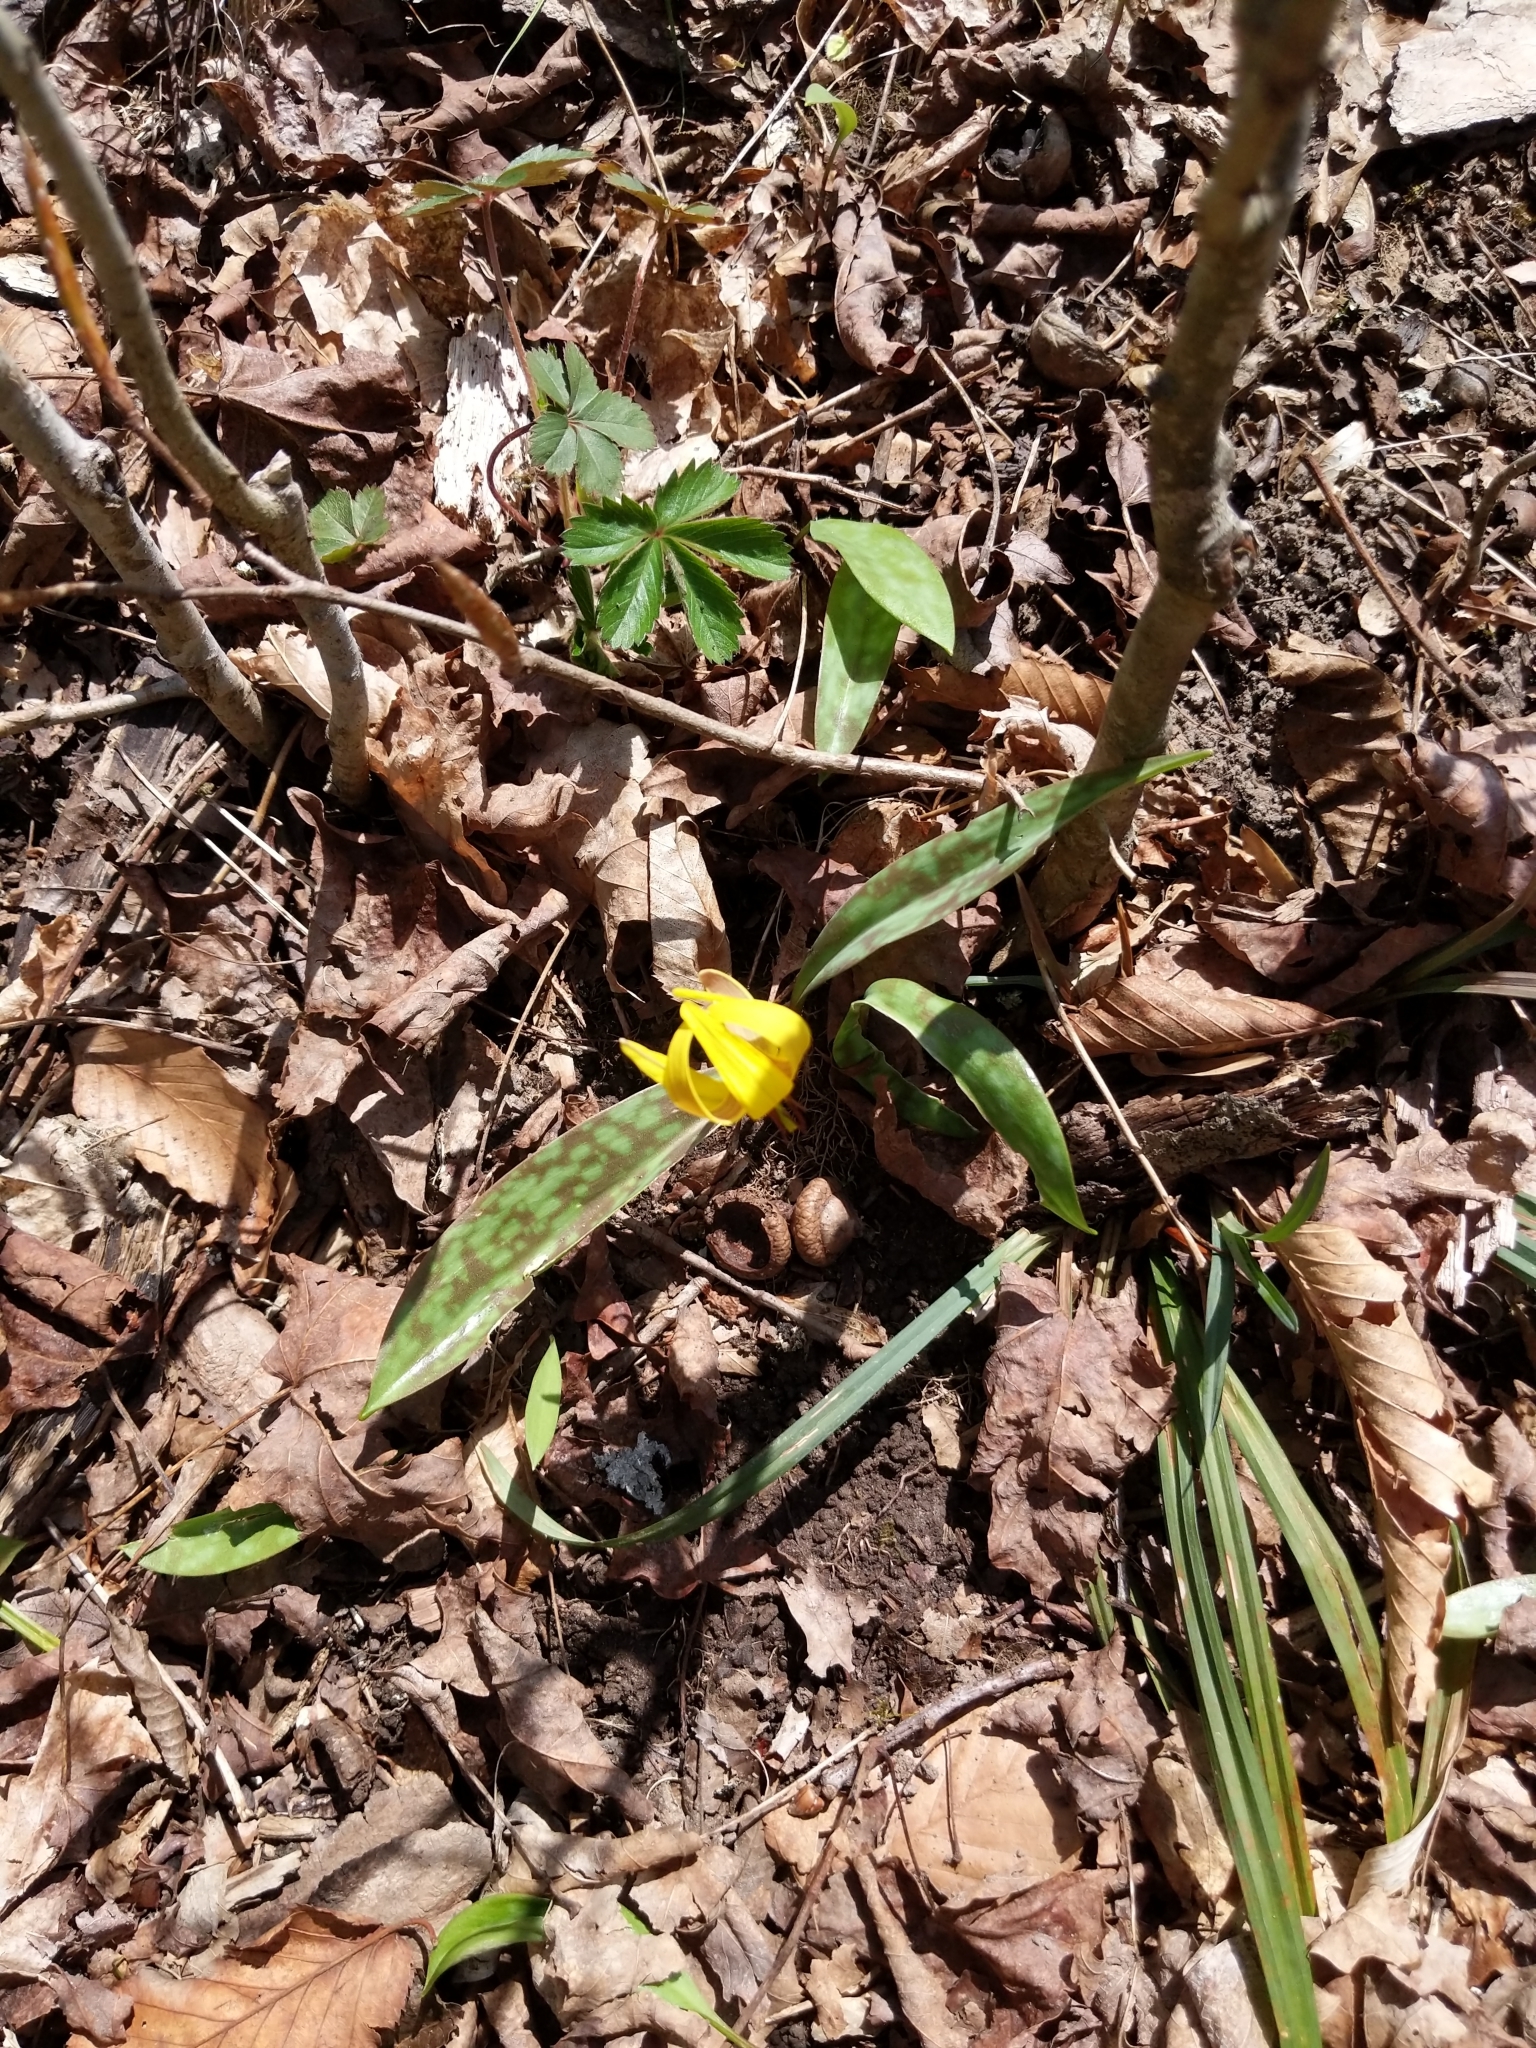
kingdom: Plantae
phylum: Tracheophyta
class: Liliopsida
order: Liliales
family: Liliaceae
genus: Erythronium
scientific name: Erythronium americanum
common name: Yellow adder's-tongue
